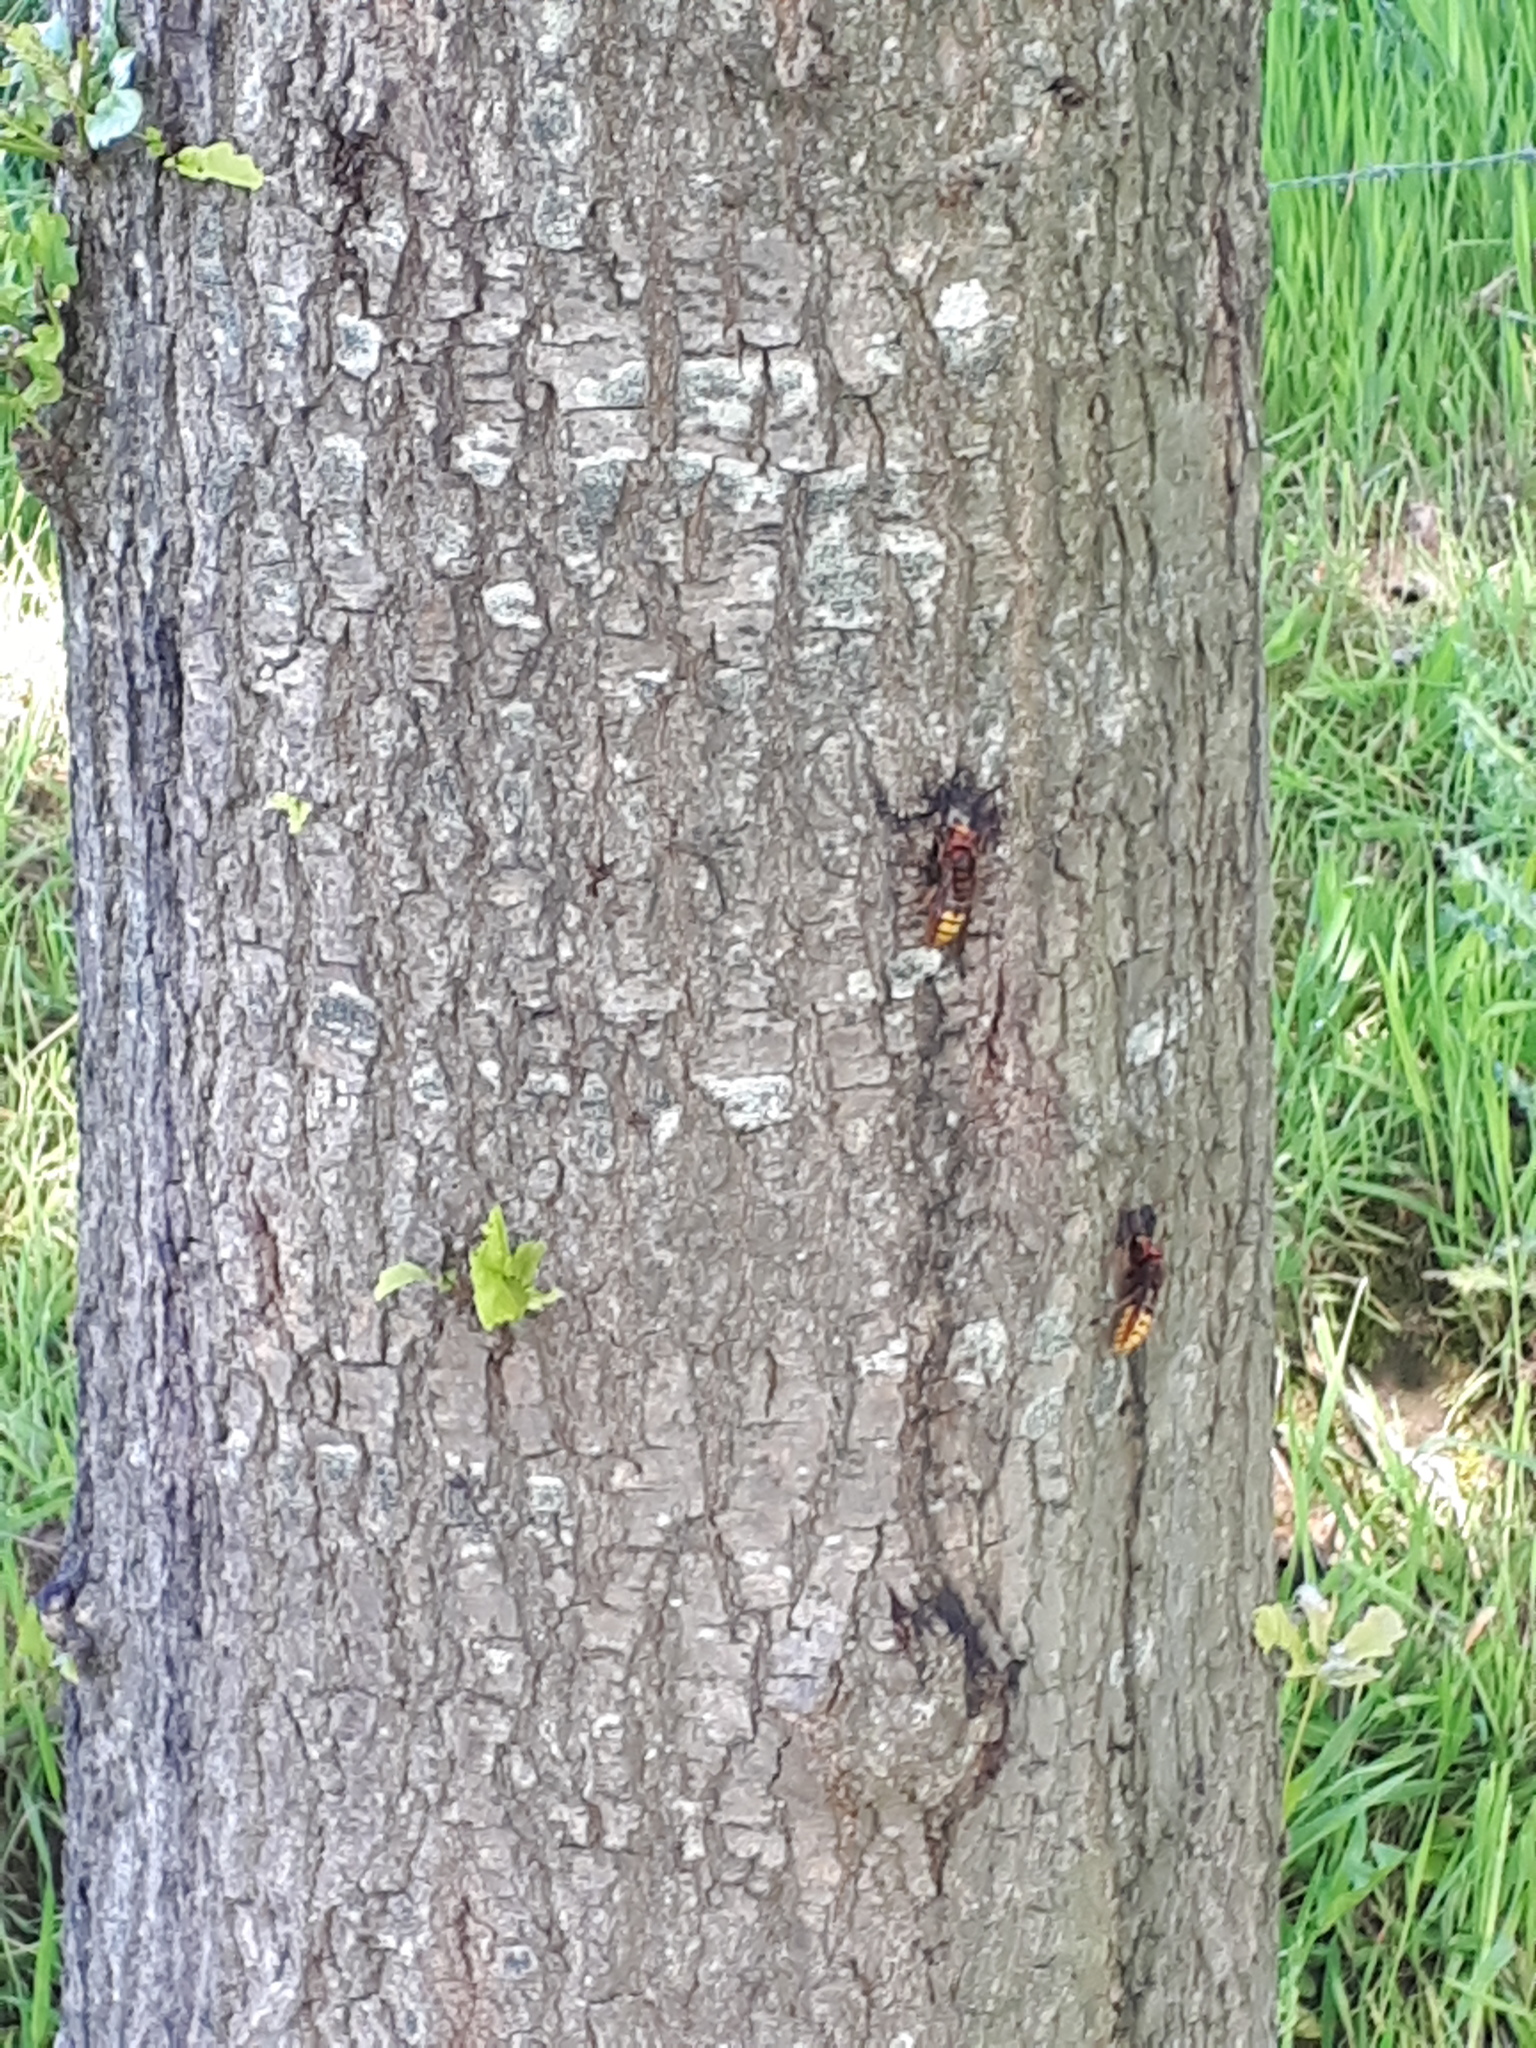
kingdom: Animalia
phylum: Arthropoda
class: Insecta
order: Hymenoptera
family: Vespidae
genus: Vespa
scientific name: Vespa crabro
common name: Hornet
